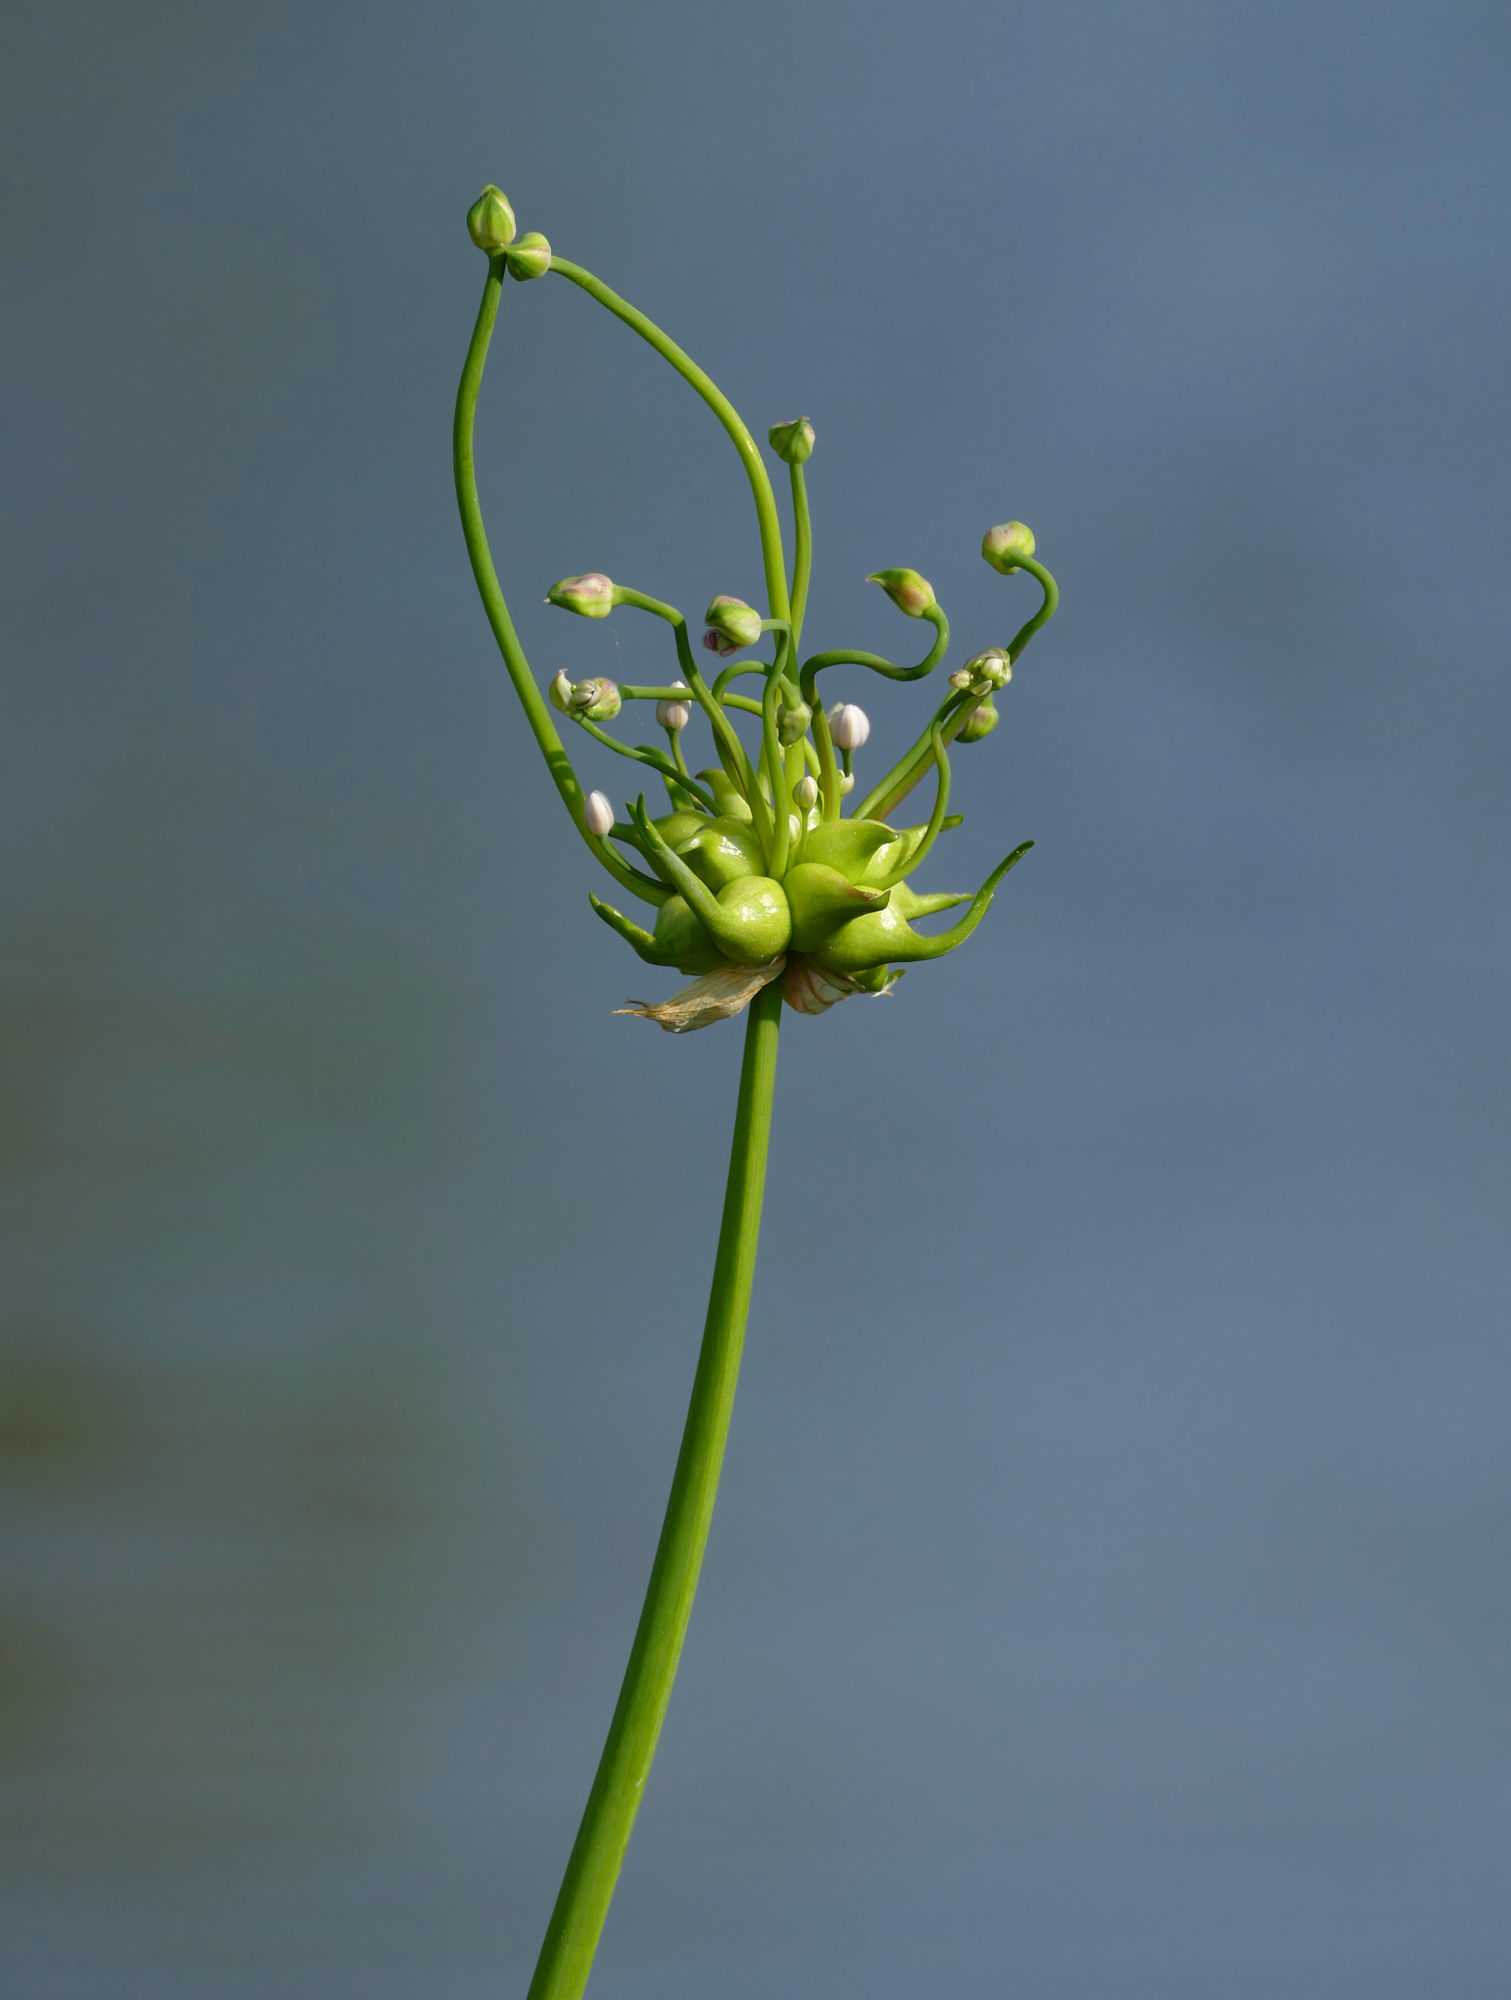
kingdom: Plantae
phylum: Tracheophyta
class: Liliopsida
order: Asparagales
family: Amaryllidaceae
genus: Allium
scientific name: Allium drummondii
